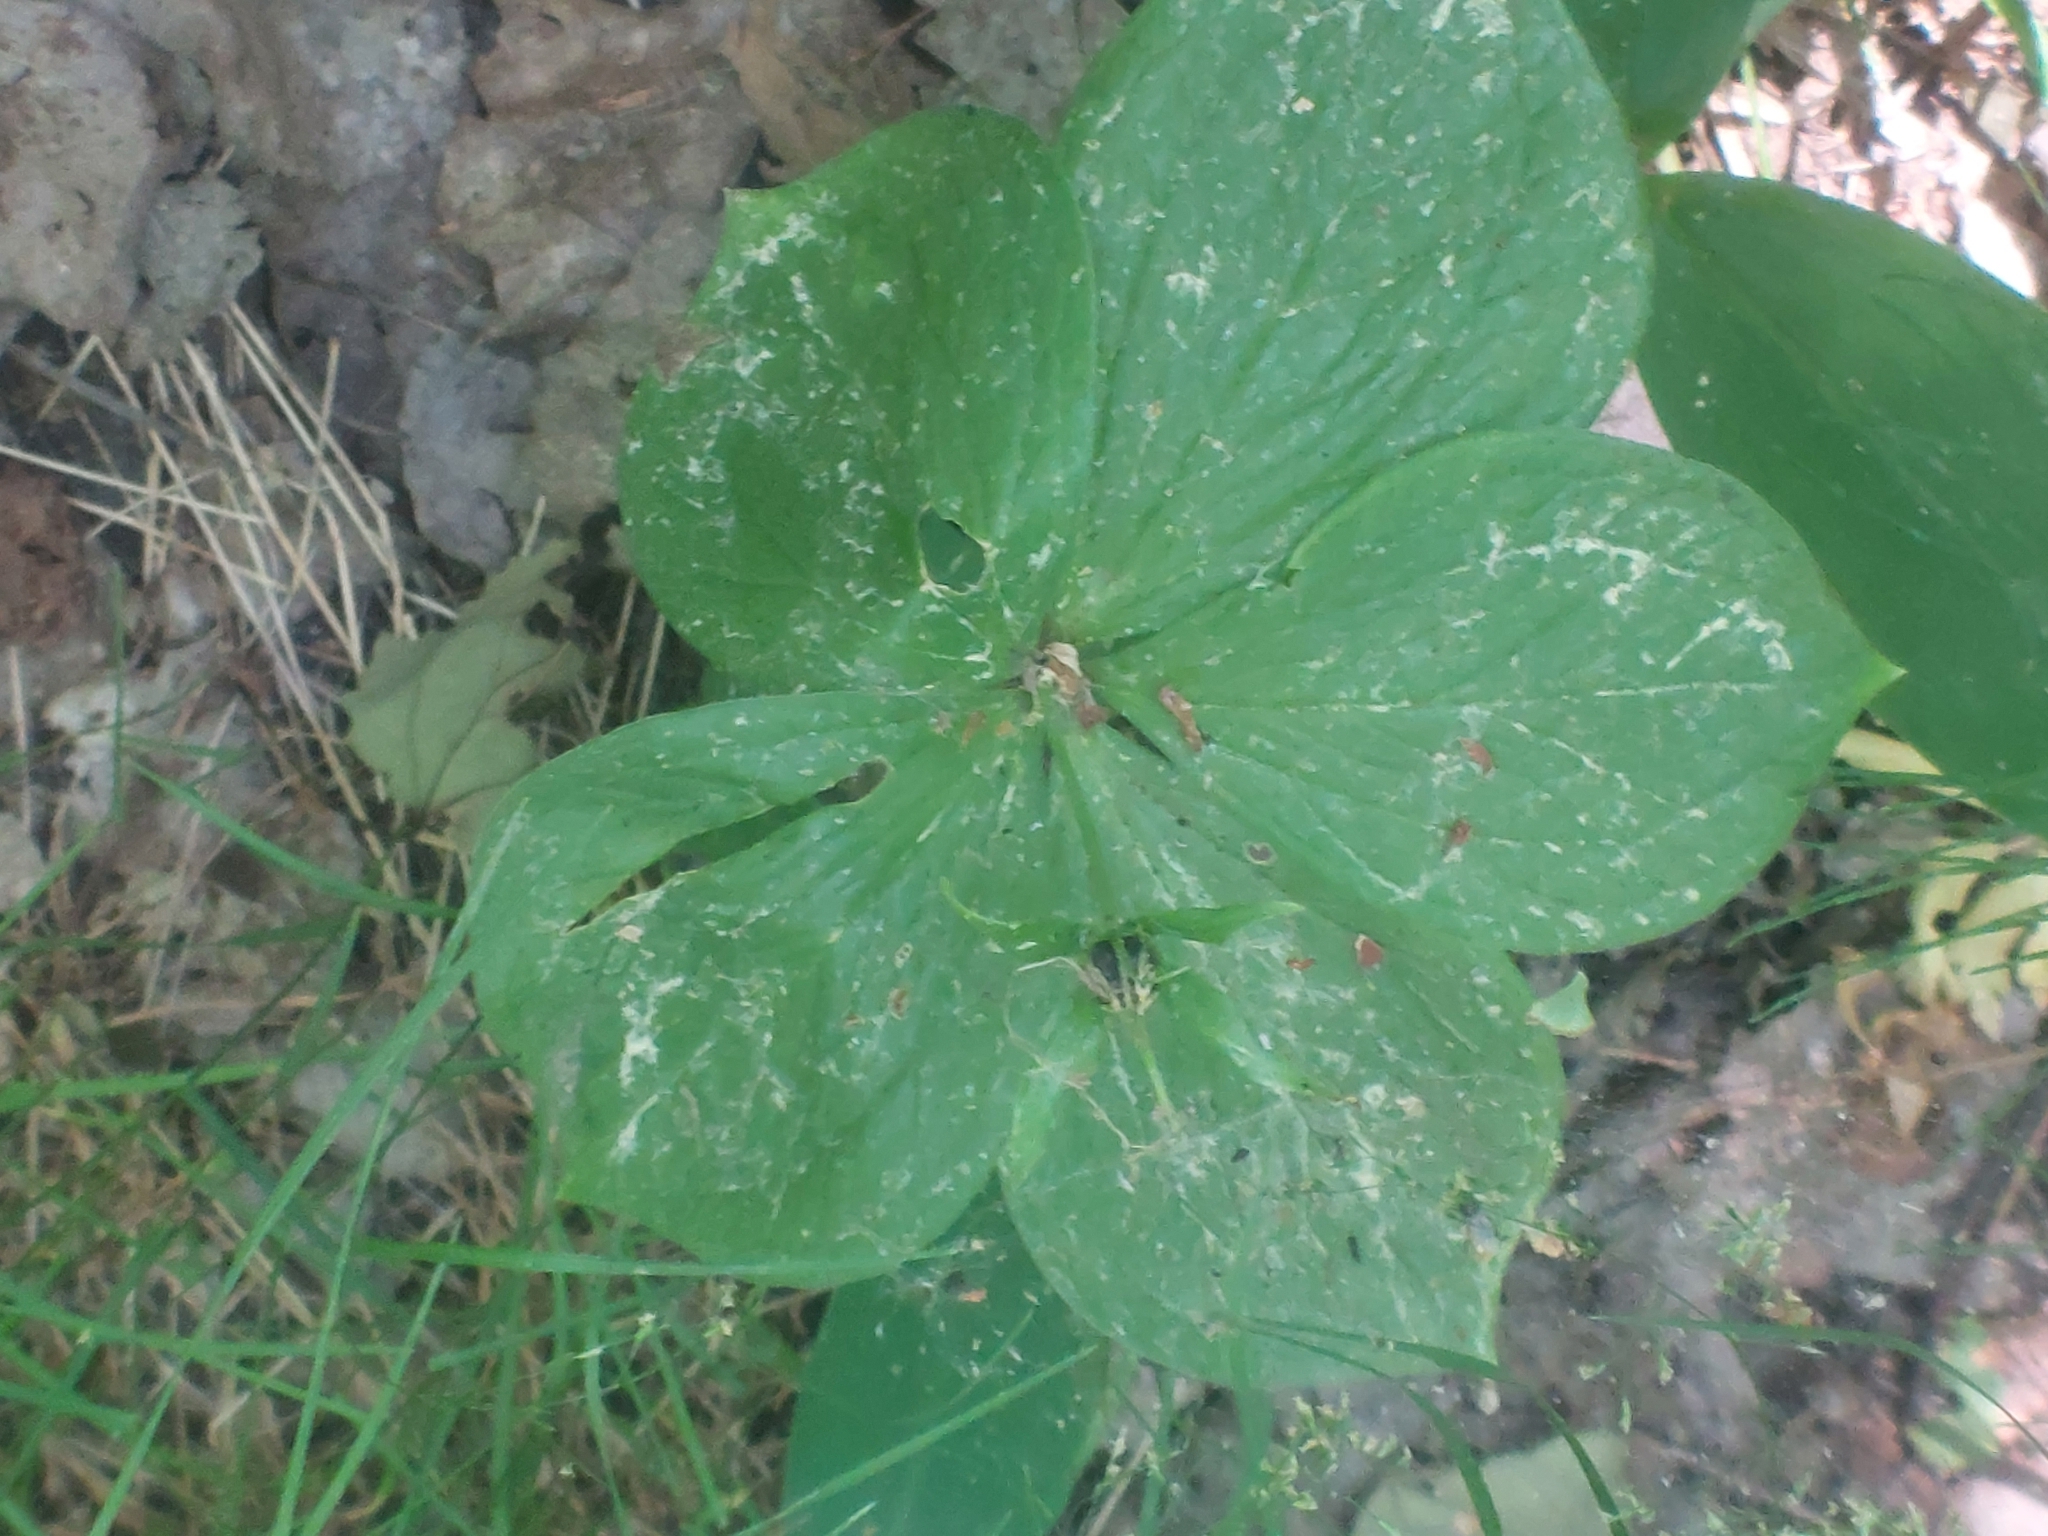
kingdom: Plantae
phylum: Tracheophyta
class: Liliopsida
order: Liliales
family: Melanthiaceae
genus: Paris
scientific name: Paris quadrifolia
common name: Herb-paris
